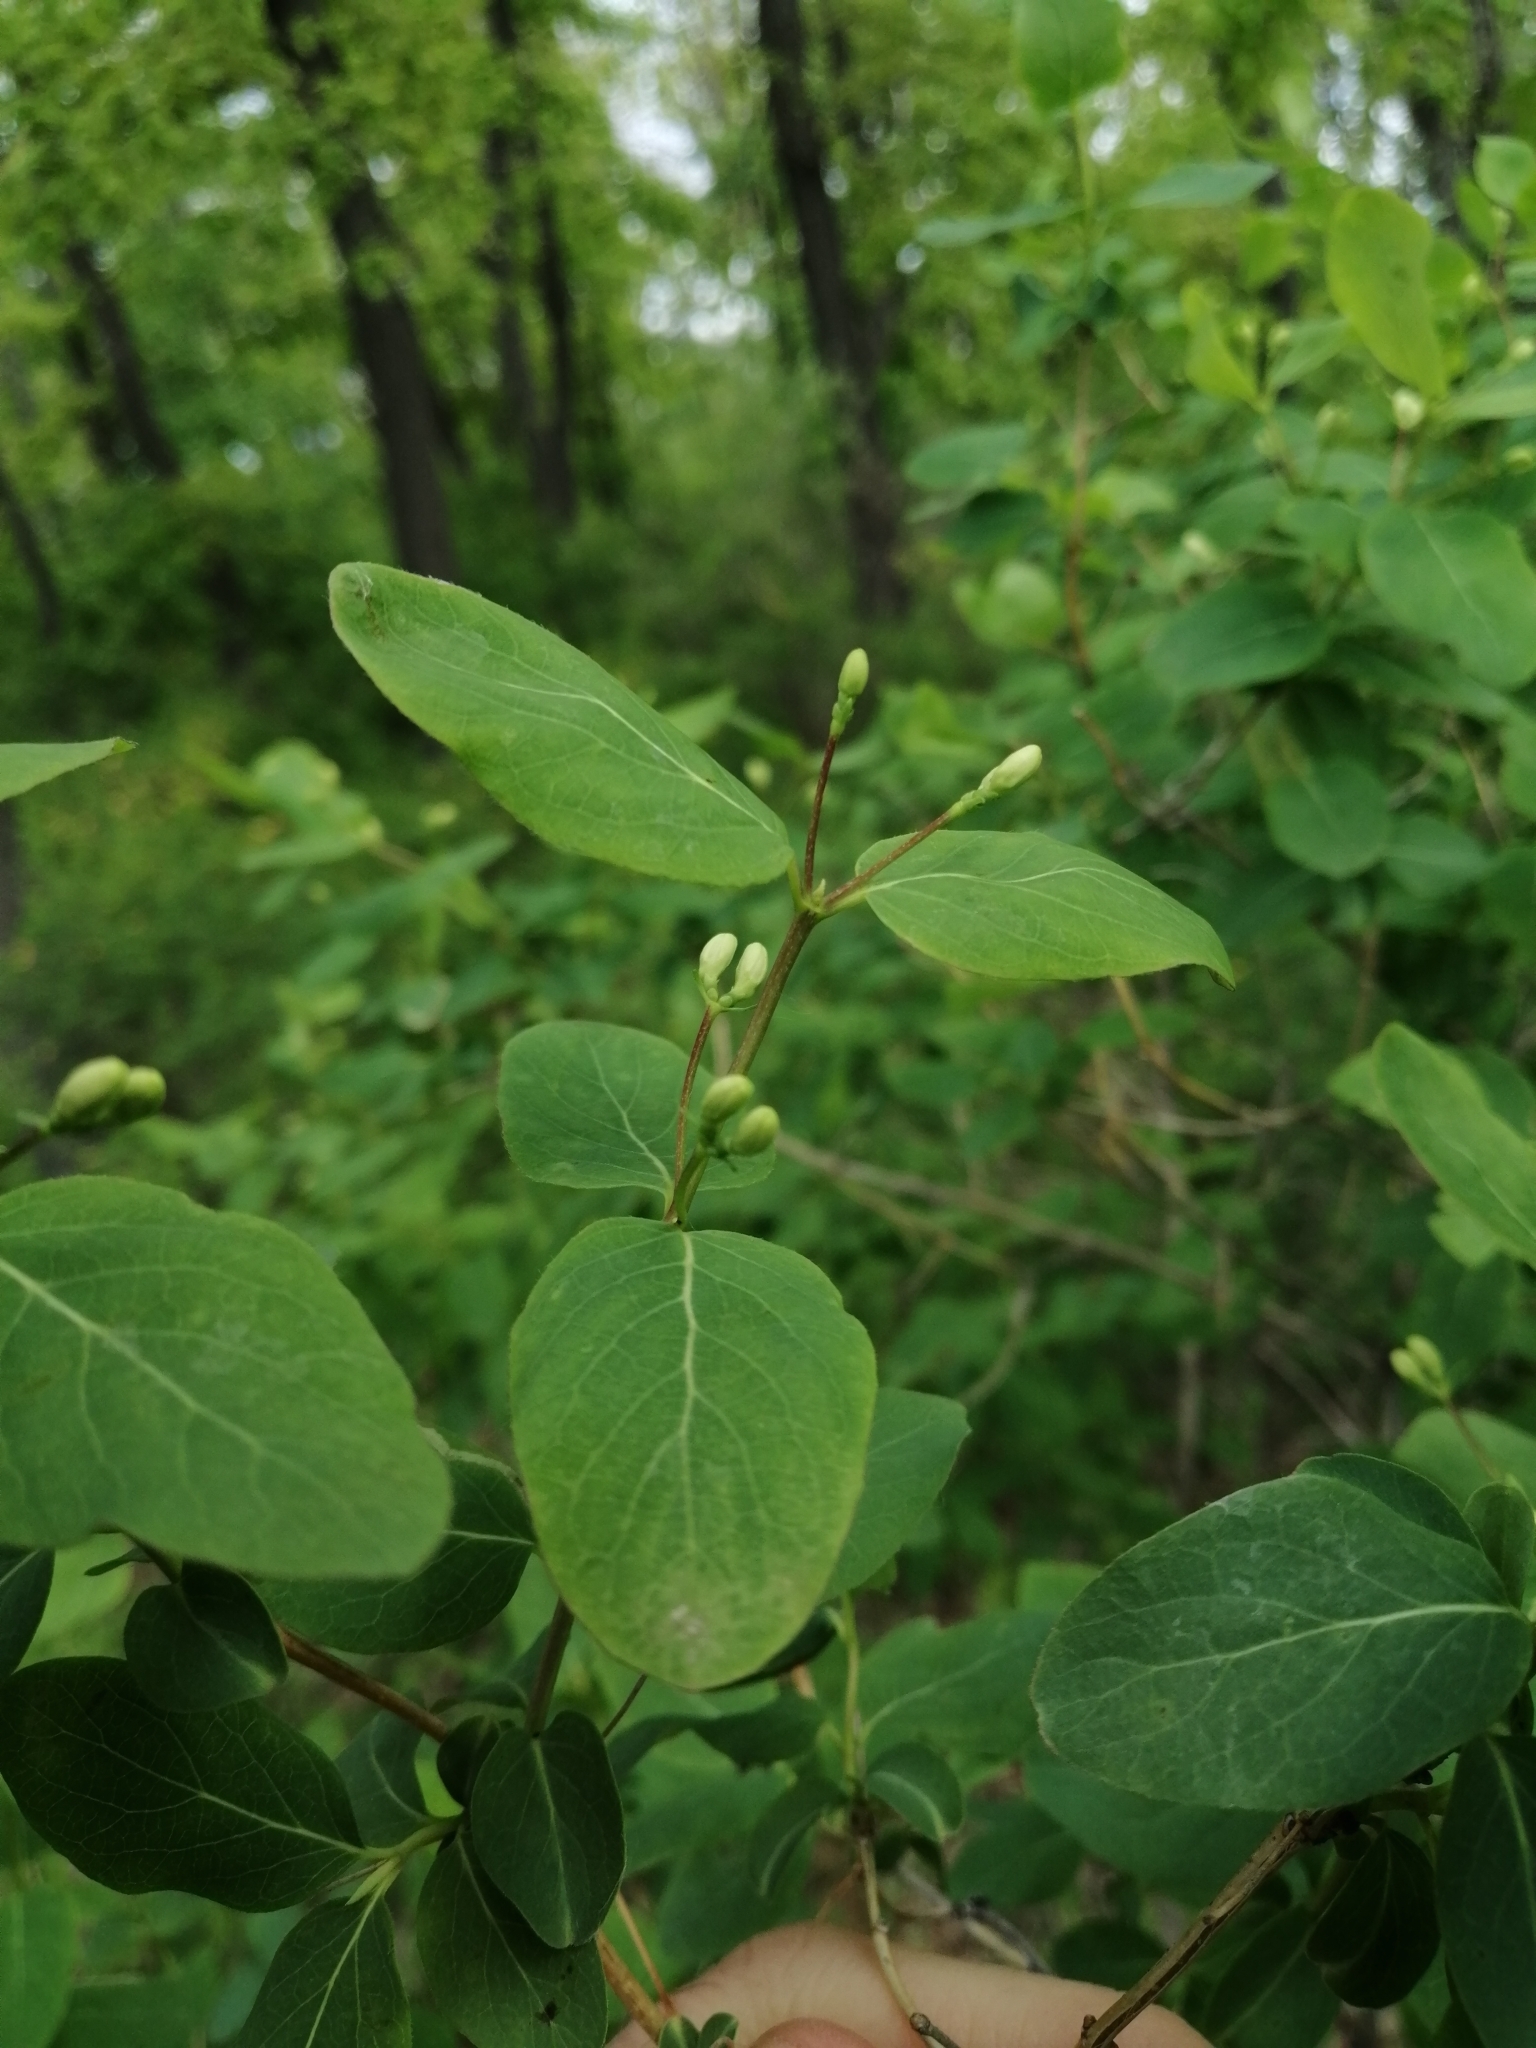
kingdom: Plantae
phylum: Tracheophyta
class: Magnoliopsida
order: Dipsacales
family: Caprifoliaceae
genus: Lonicera
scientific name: Lonicera tatarica
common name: Tatarian honeysuckle
